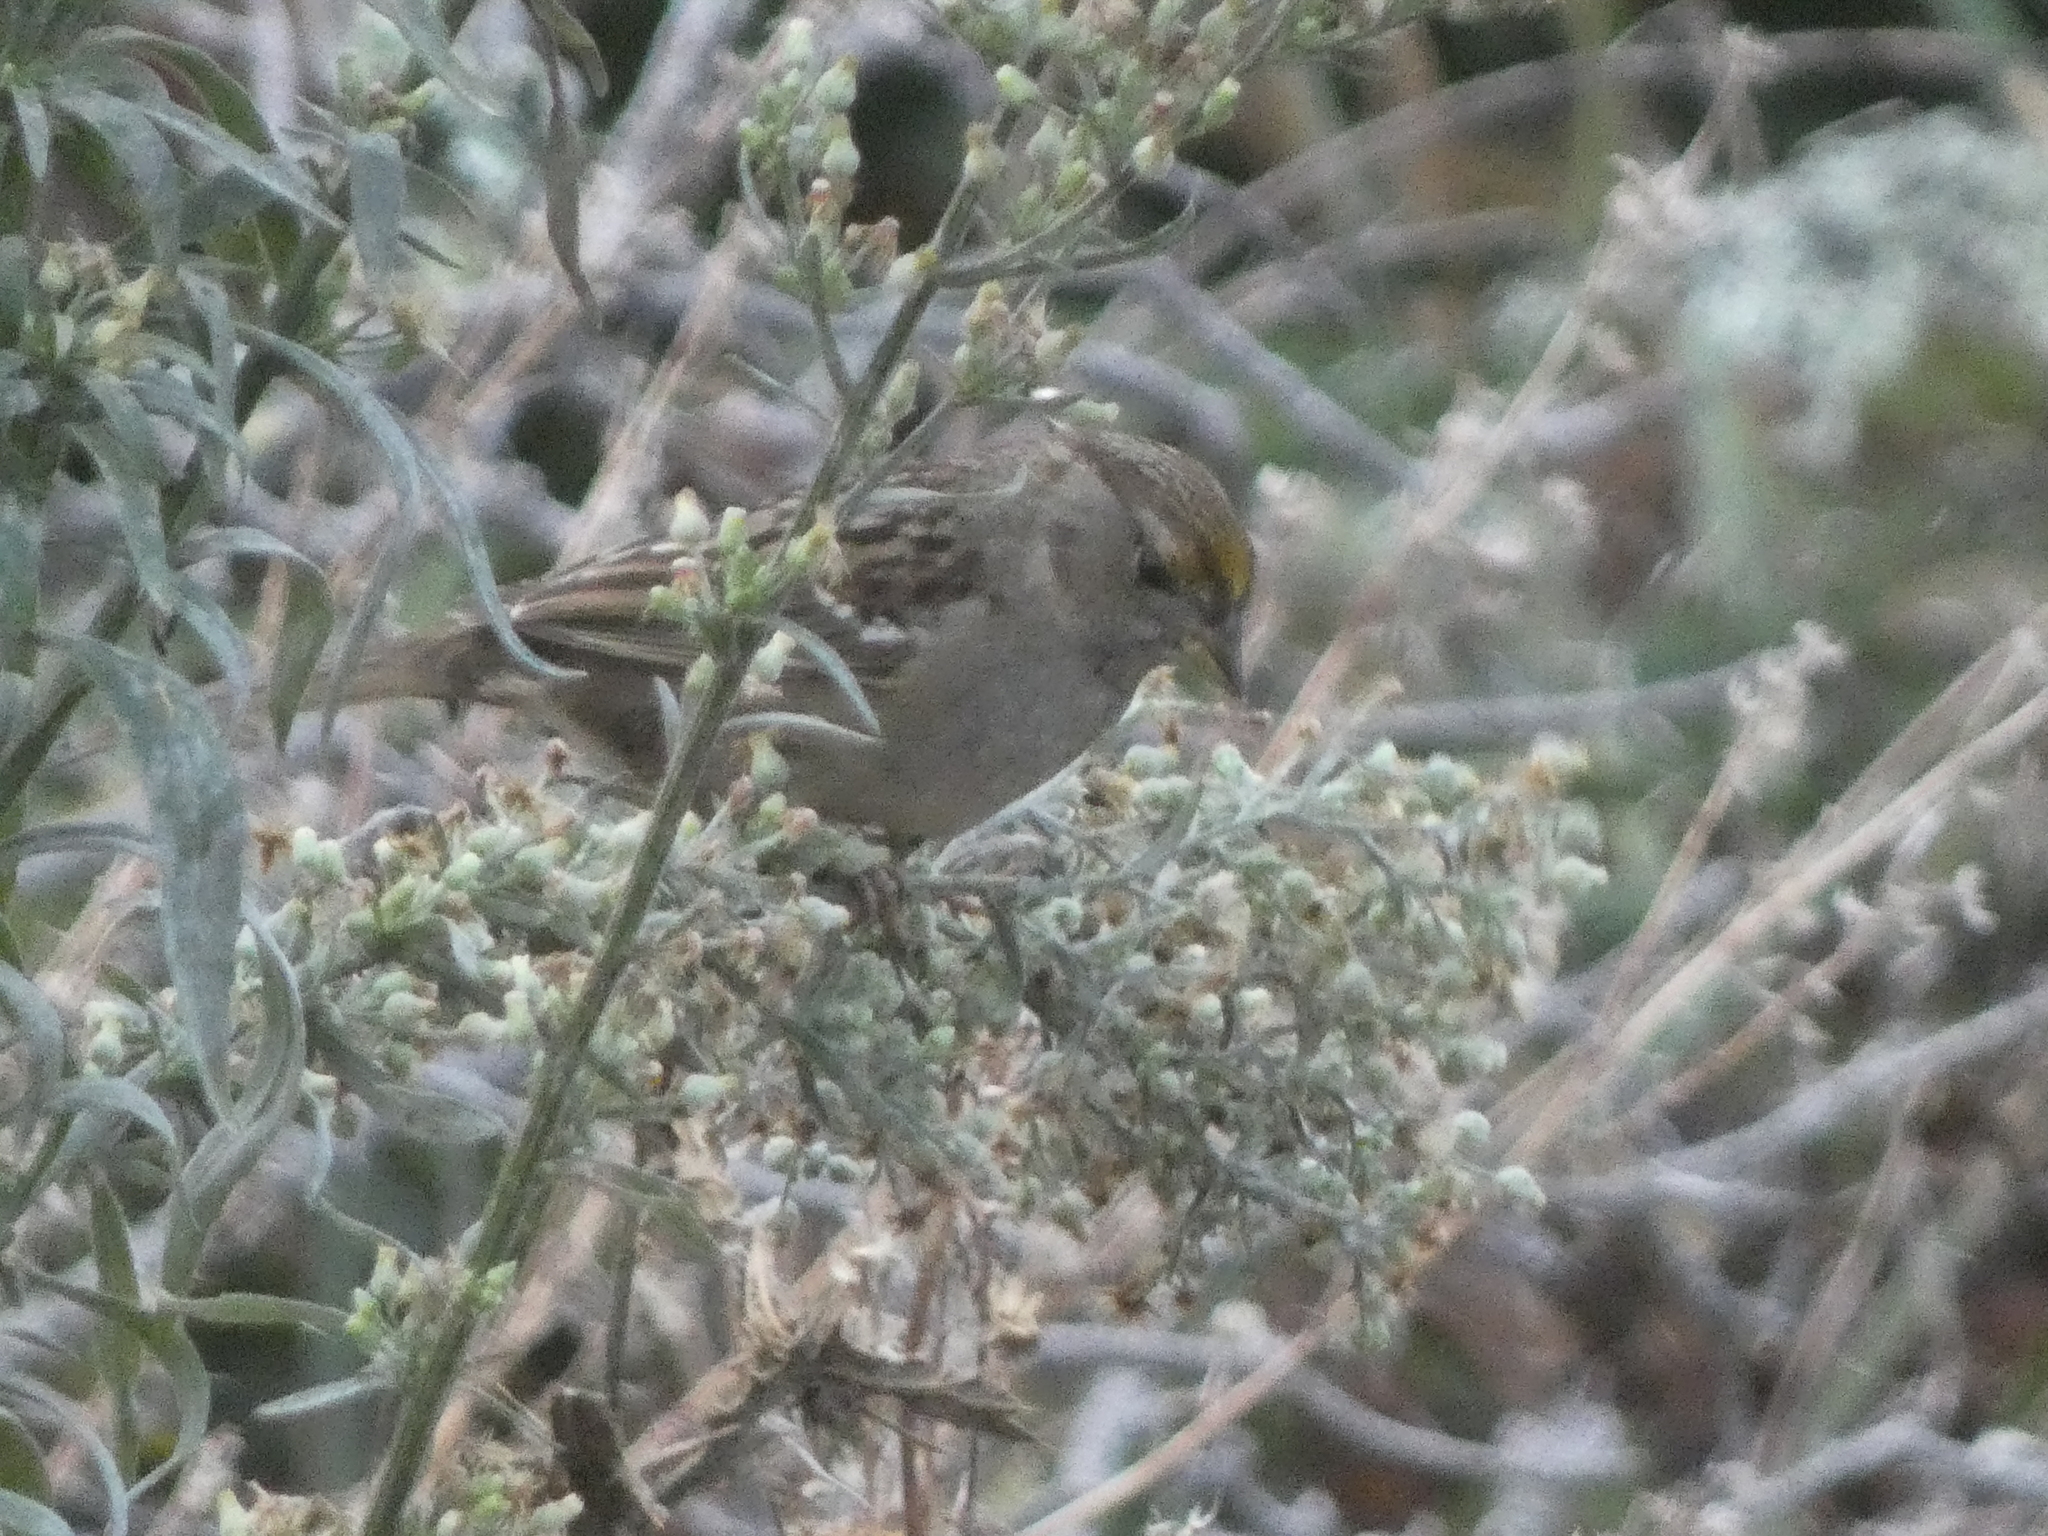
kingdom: Animalia
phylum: Chordata
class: Aves
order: Passeriformes
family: Passerellidae
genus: Zonotrichia
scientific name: Zonotrichia atricapilla
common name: Golden-crowned sparrow
